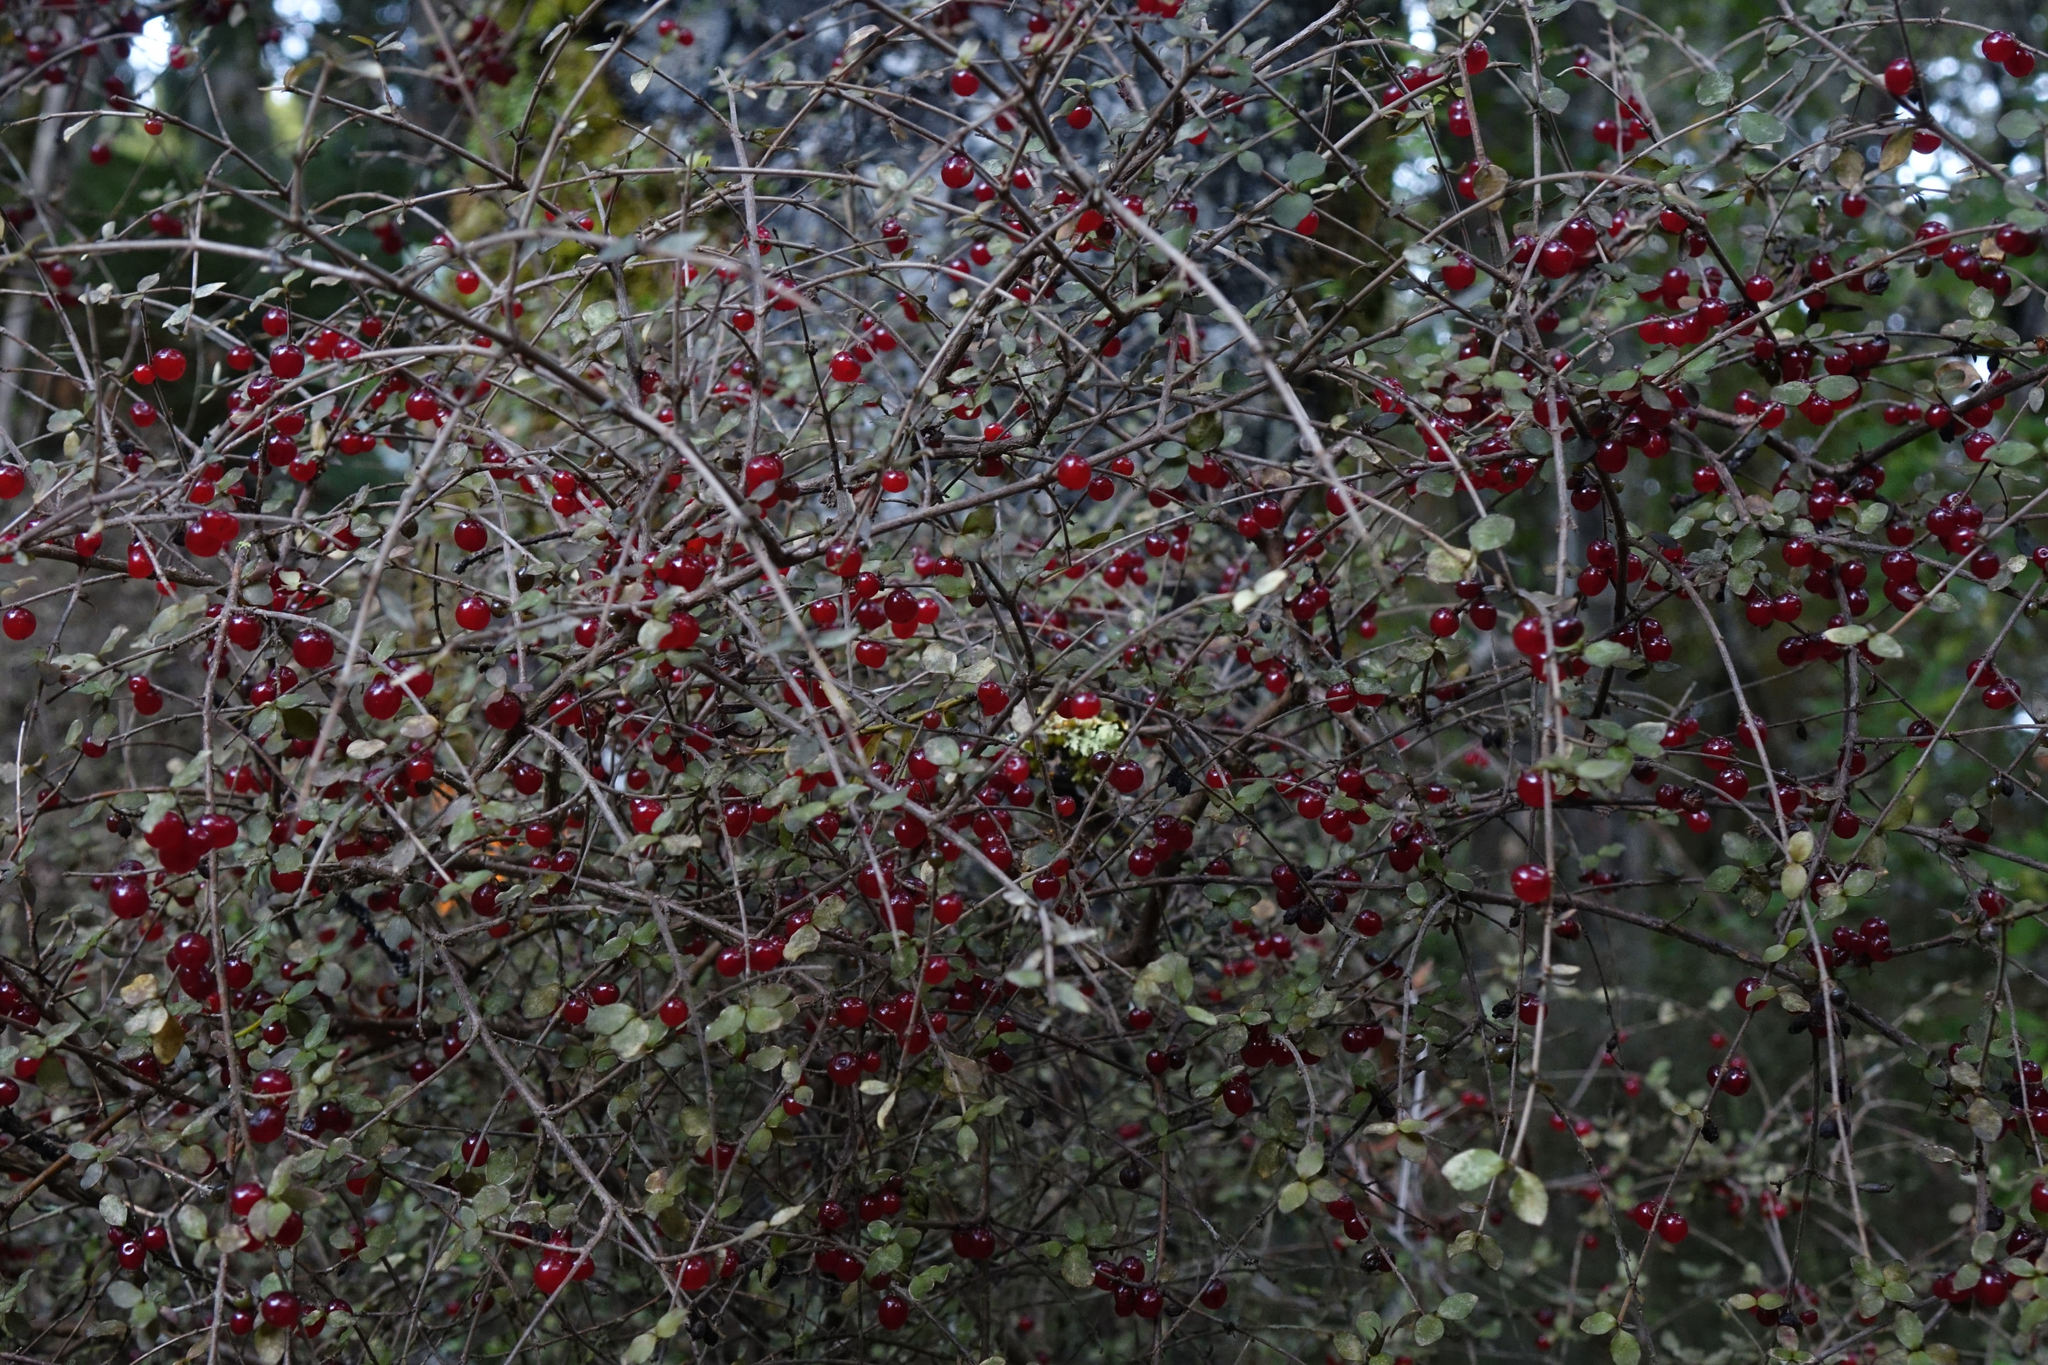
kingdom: Plantae
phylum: Tracheophyta
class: Magnoliopsida
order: Gentianales
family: Rubiaceae
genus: Coprosma
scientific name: Coprosma rhamnoides
